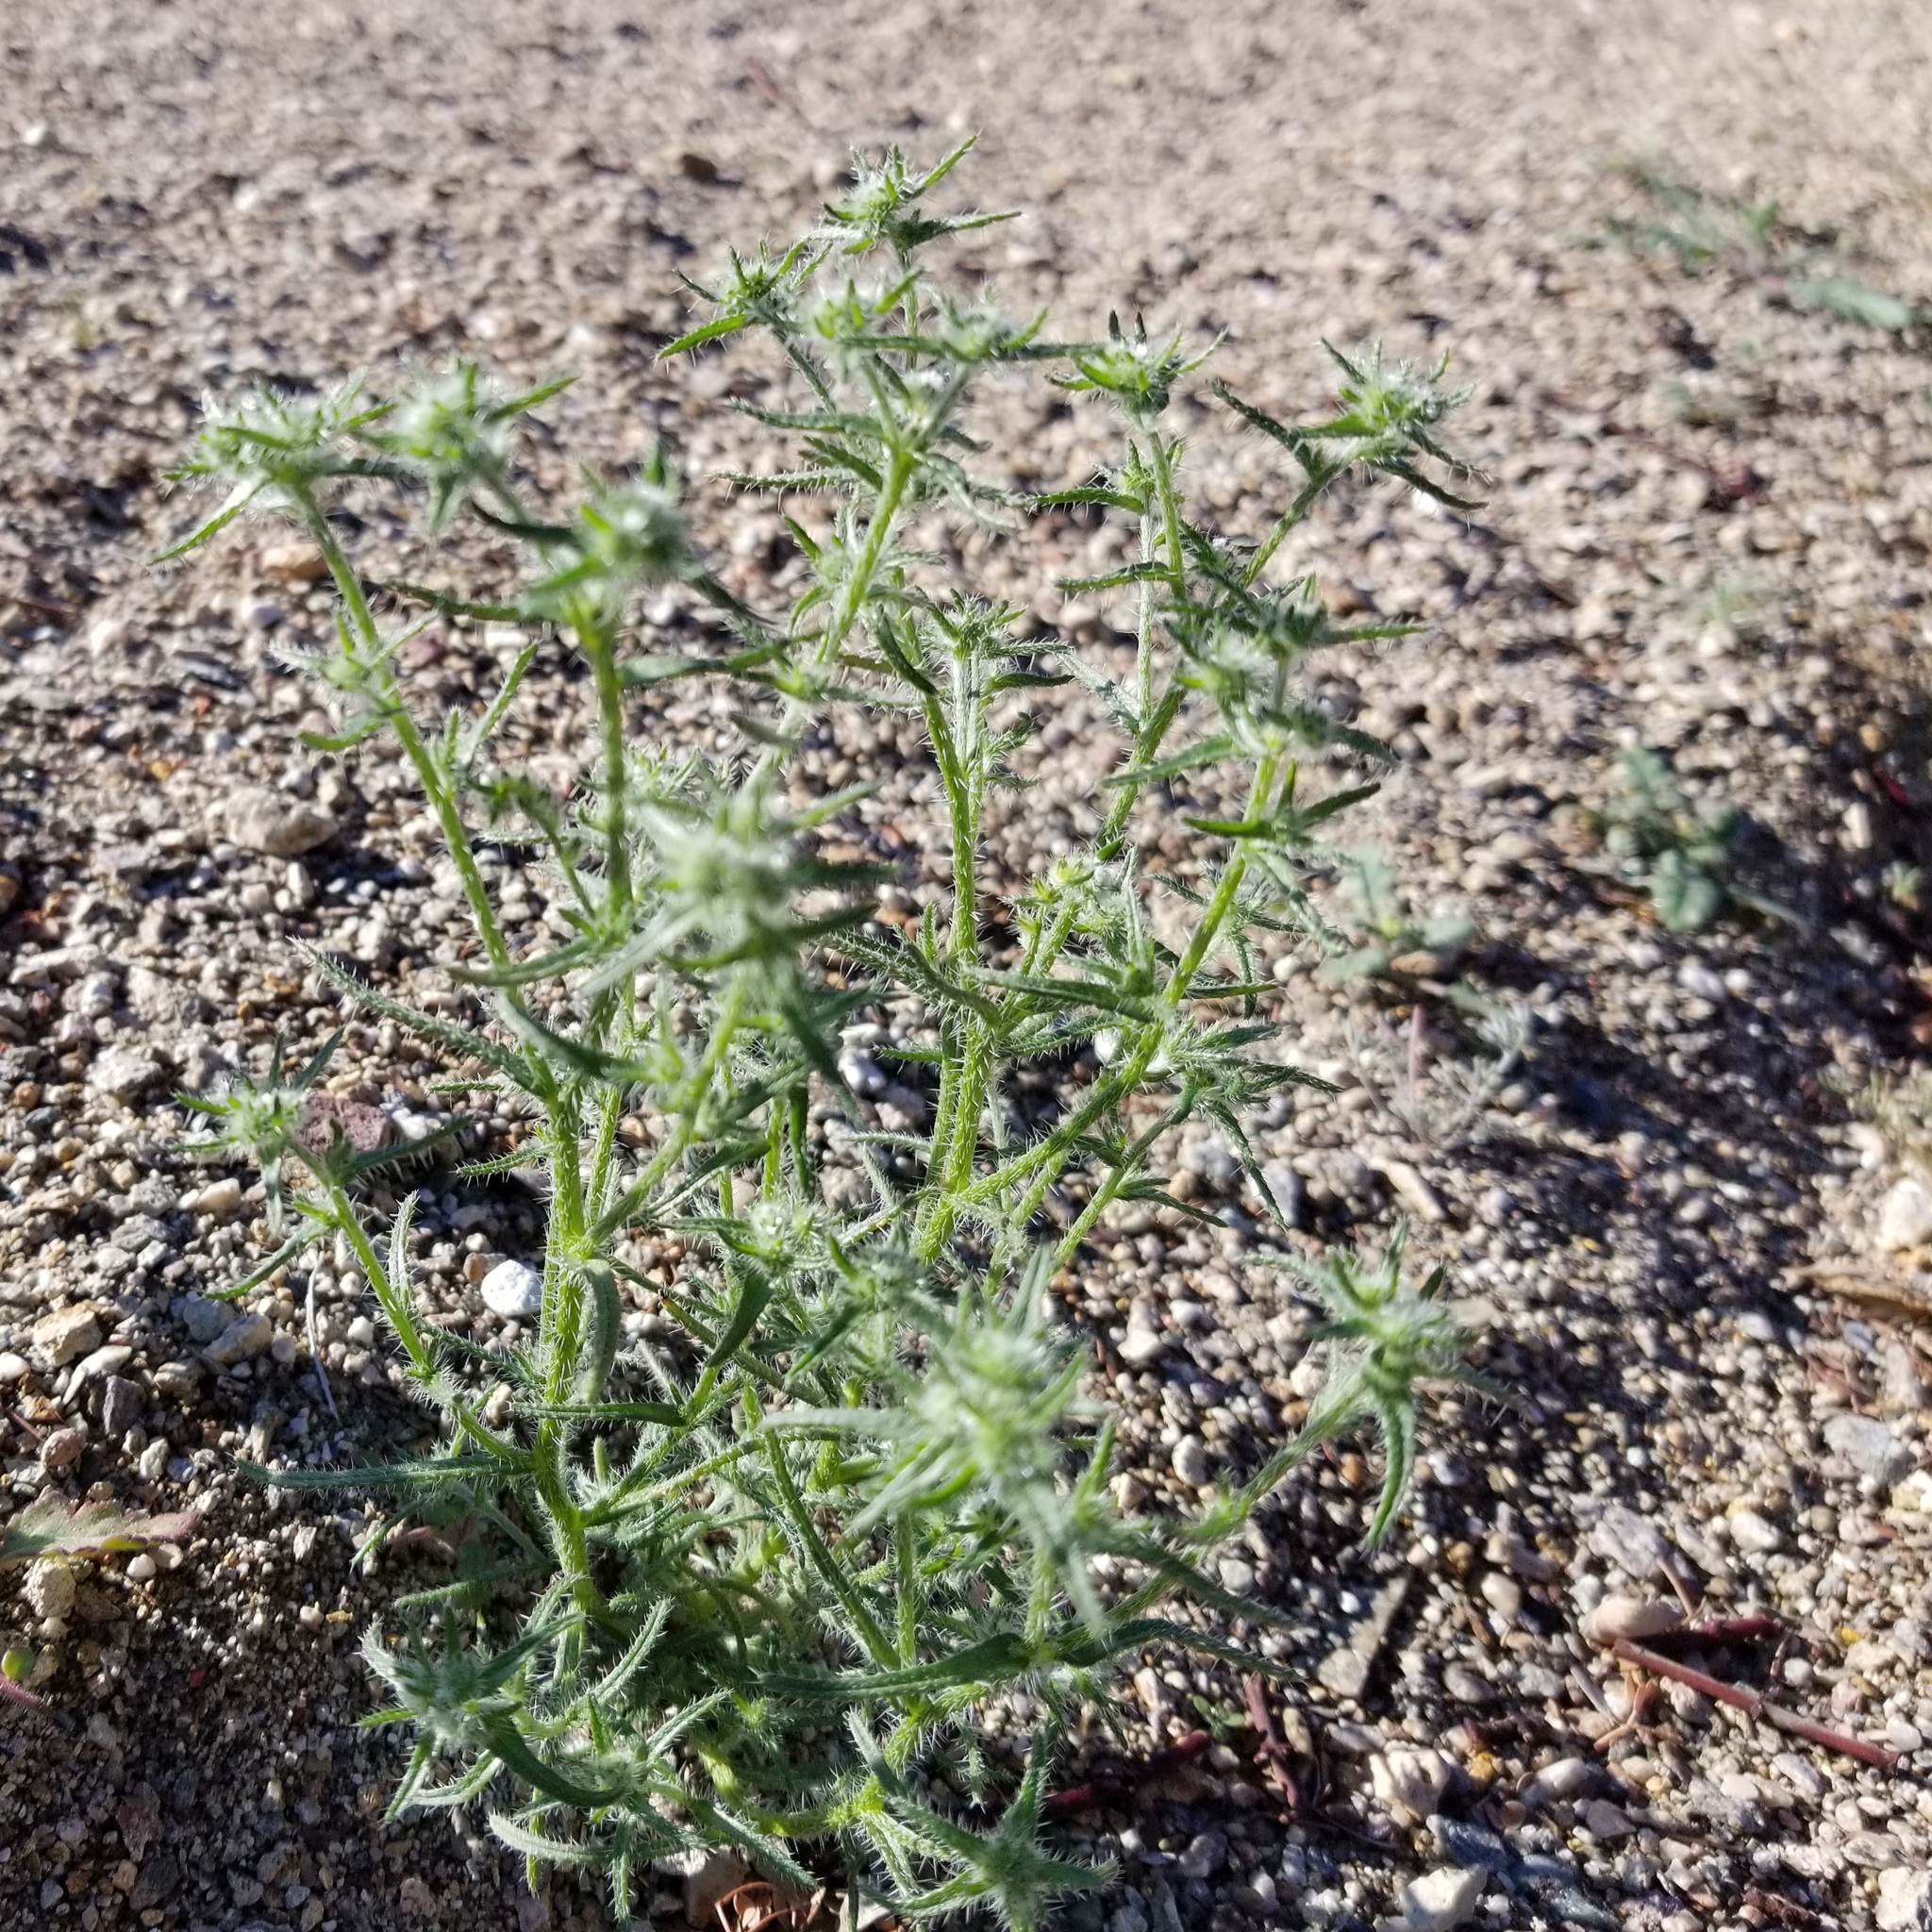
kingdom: Plantae
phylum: Tracheophyta
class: Magnoliopsida
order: Boraginales
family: Boraginaceae
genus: Cryptantha
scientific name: Cryptantha maritima
